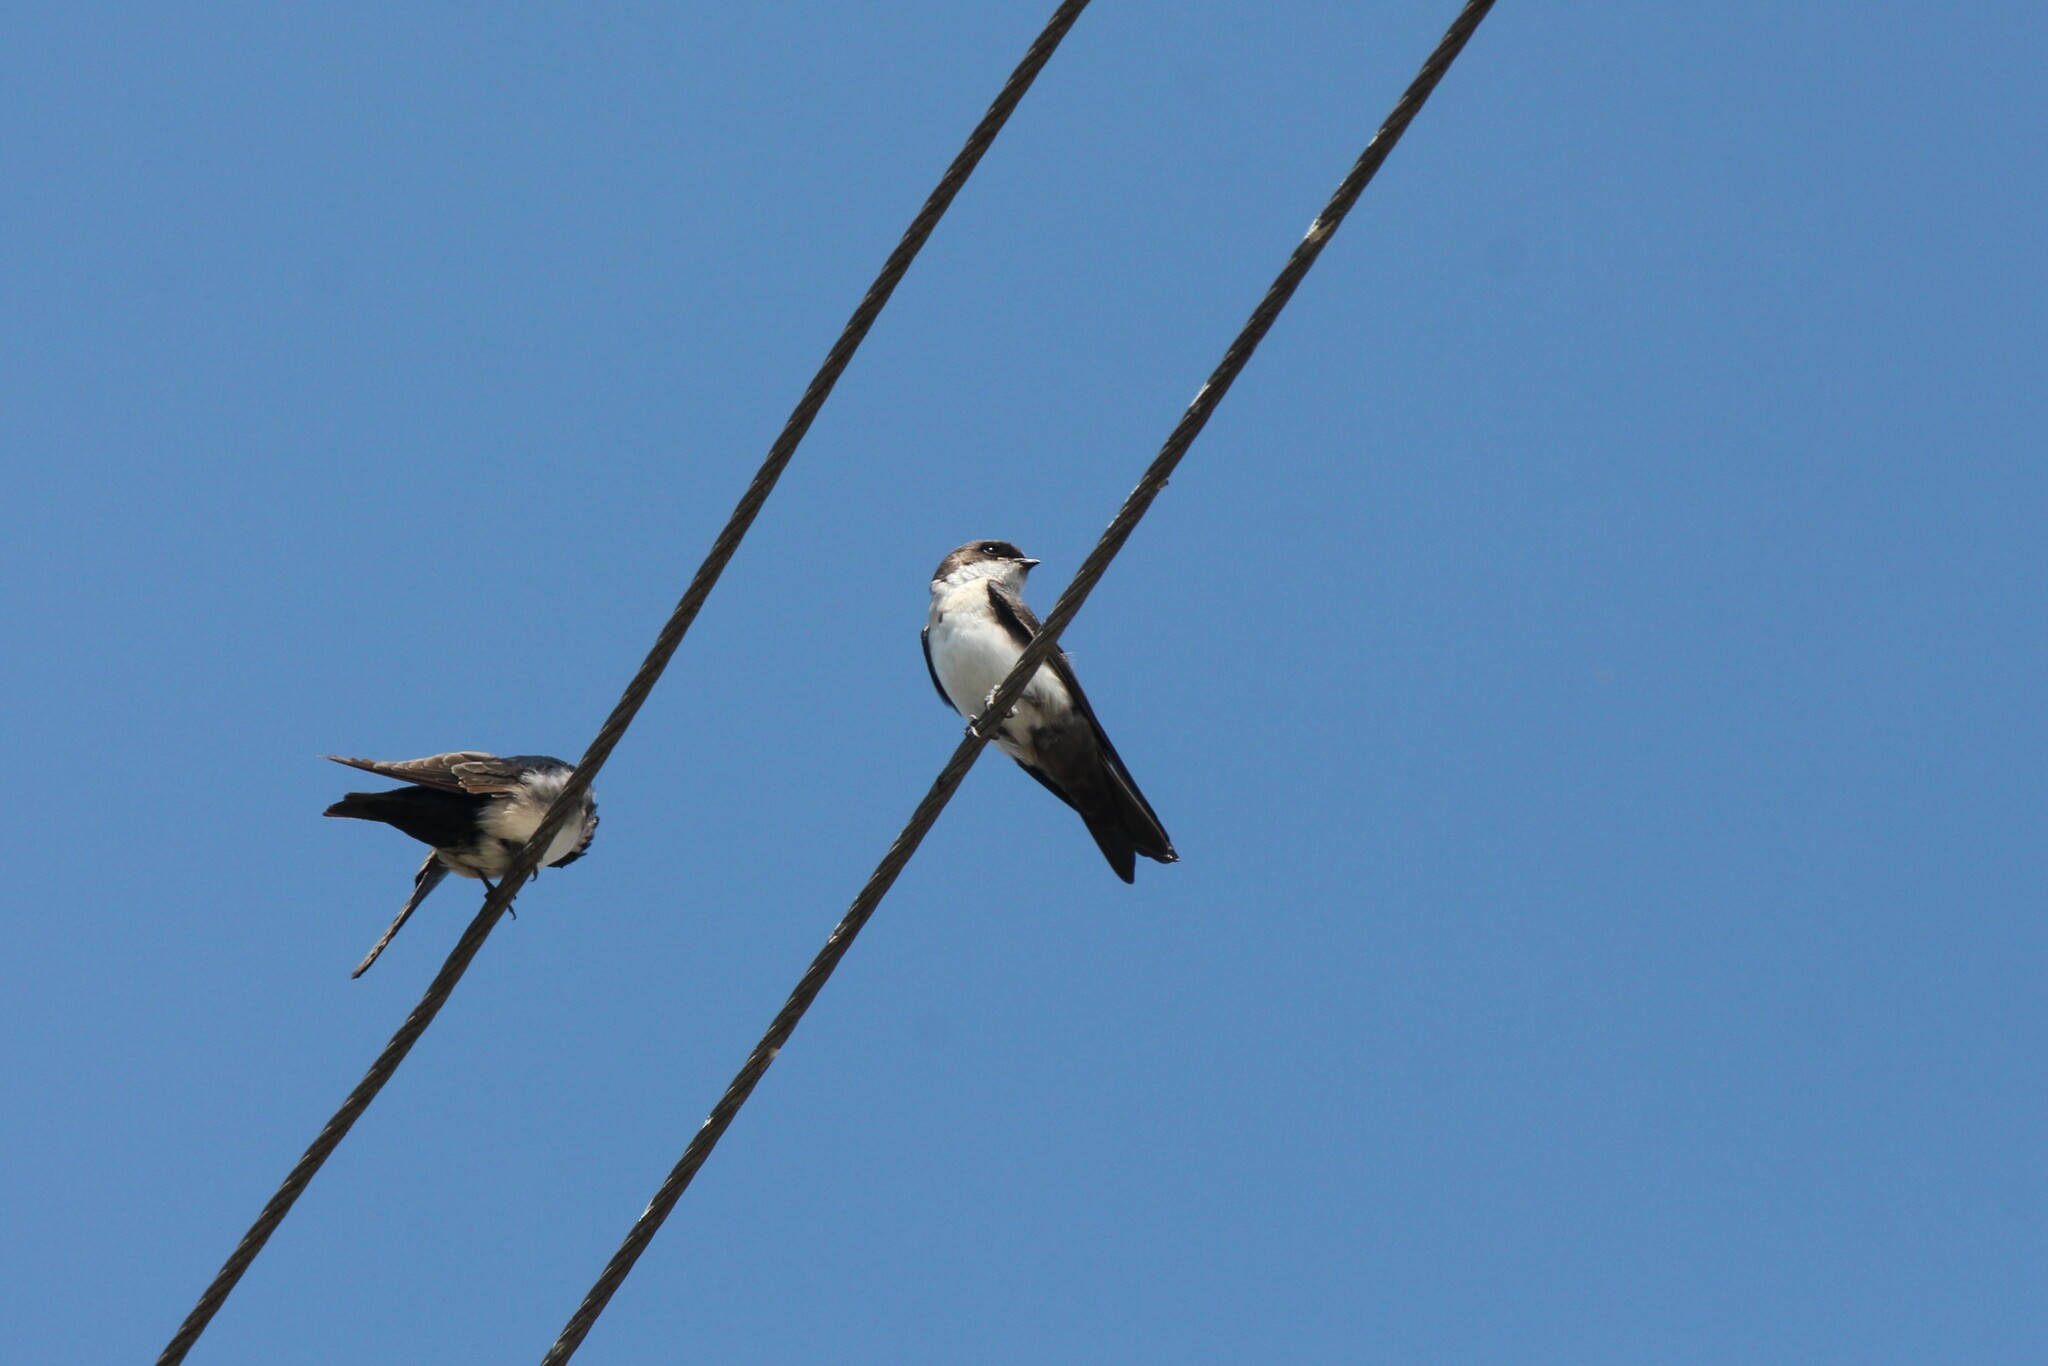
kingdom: Animalia
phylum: Chordata
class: Aves
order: Passeriformes
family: Hirundinidae
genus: Notiochelidon
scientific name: Notiochelidon cyanoleuca
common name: Blue-and-white swallow
